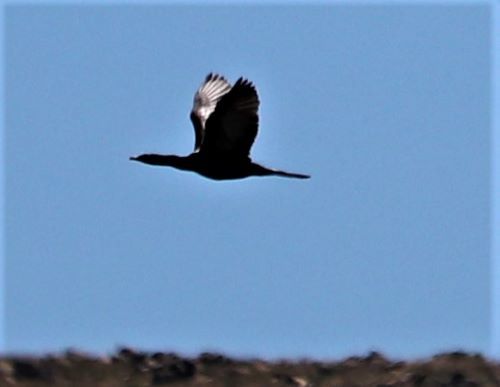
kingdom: Animalia
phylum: Chordata
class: Aves
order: Suliformes
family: Phalacrocoracidae
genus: Microcarbo
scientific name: Microcarbo africanus
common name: Long-tailed cormorant
